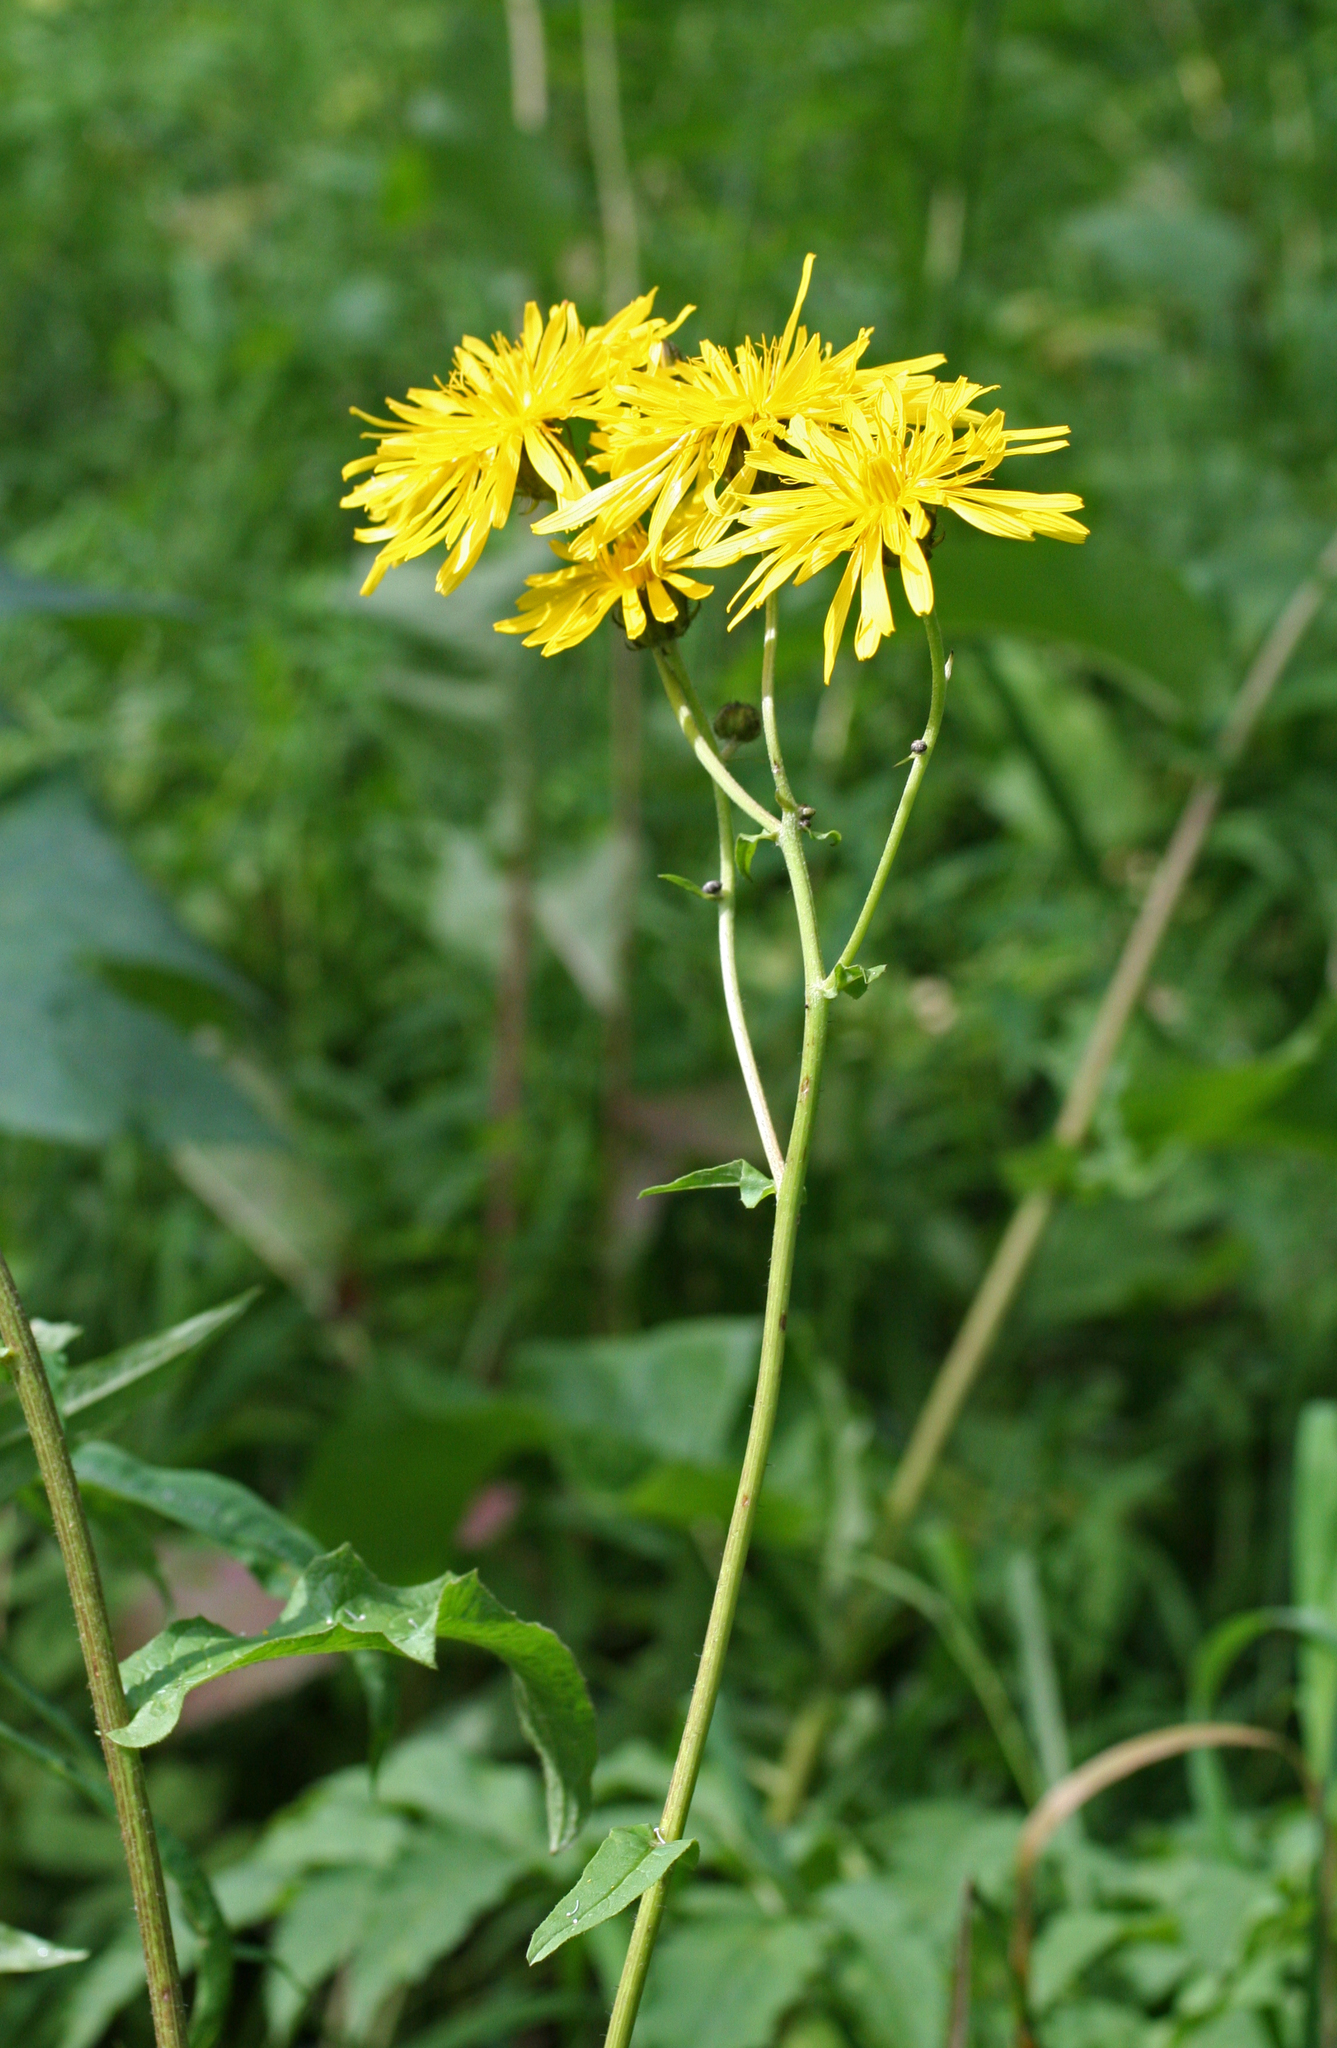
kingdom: Plantae
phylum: Tracheophyta
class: Magnoliopsida
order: Asterales
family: Asteraceae
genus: Crepis
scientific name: Crepis sibirica
